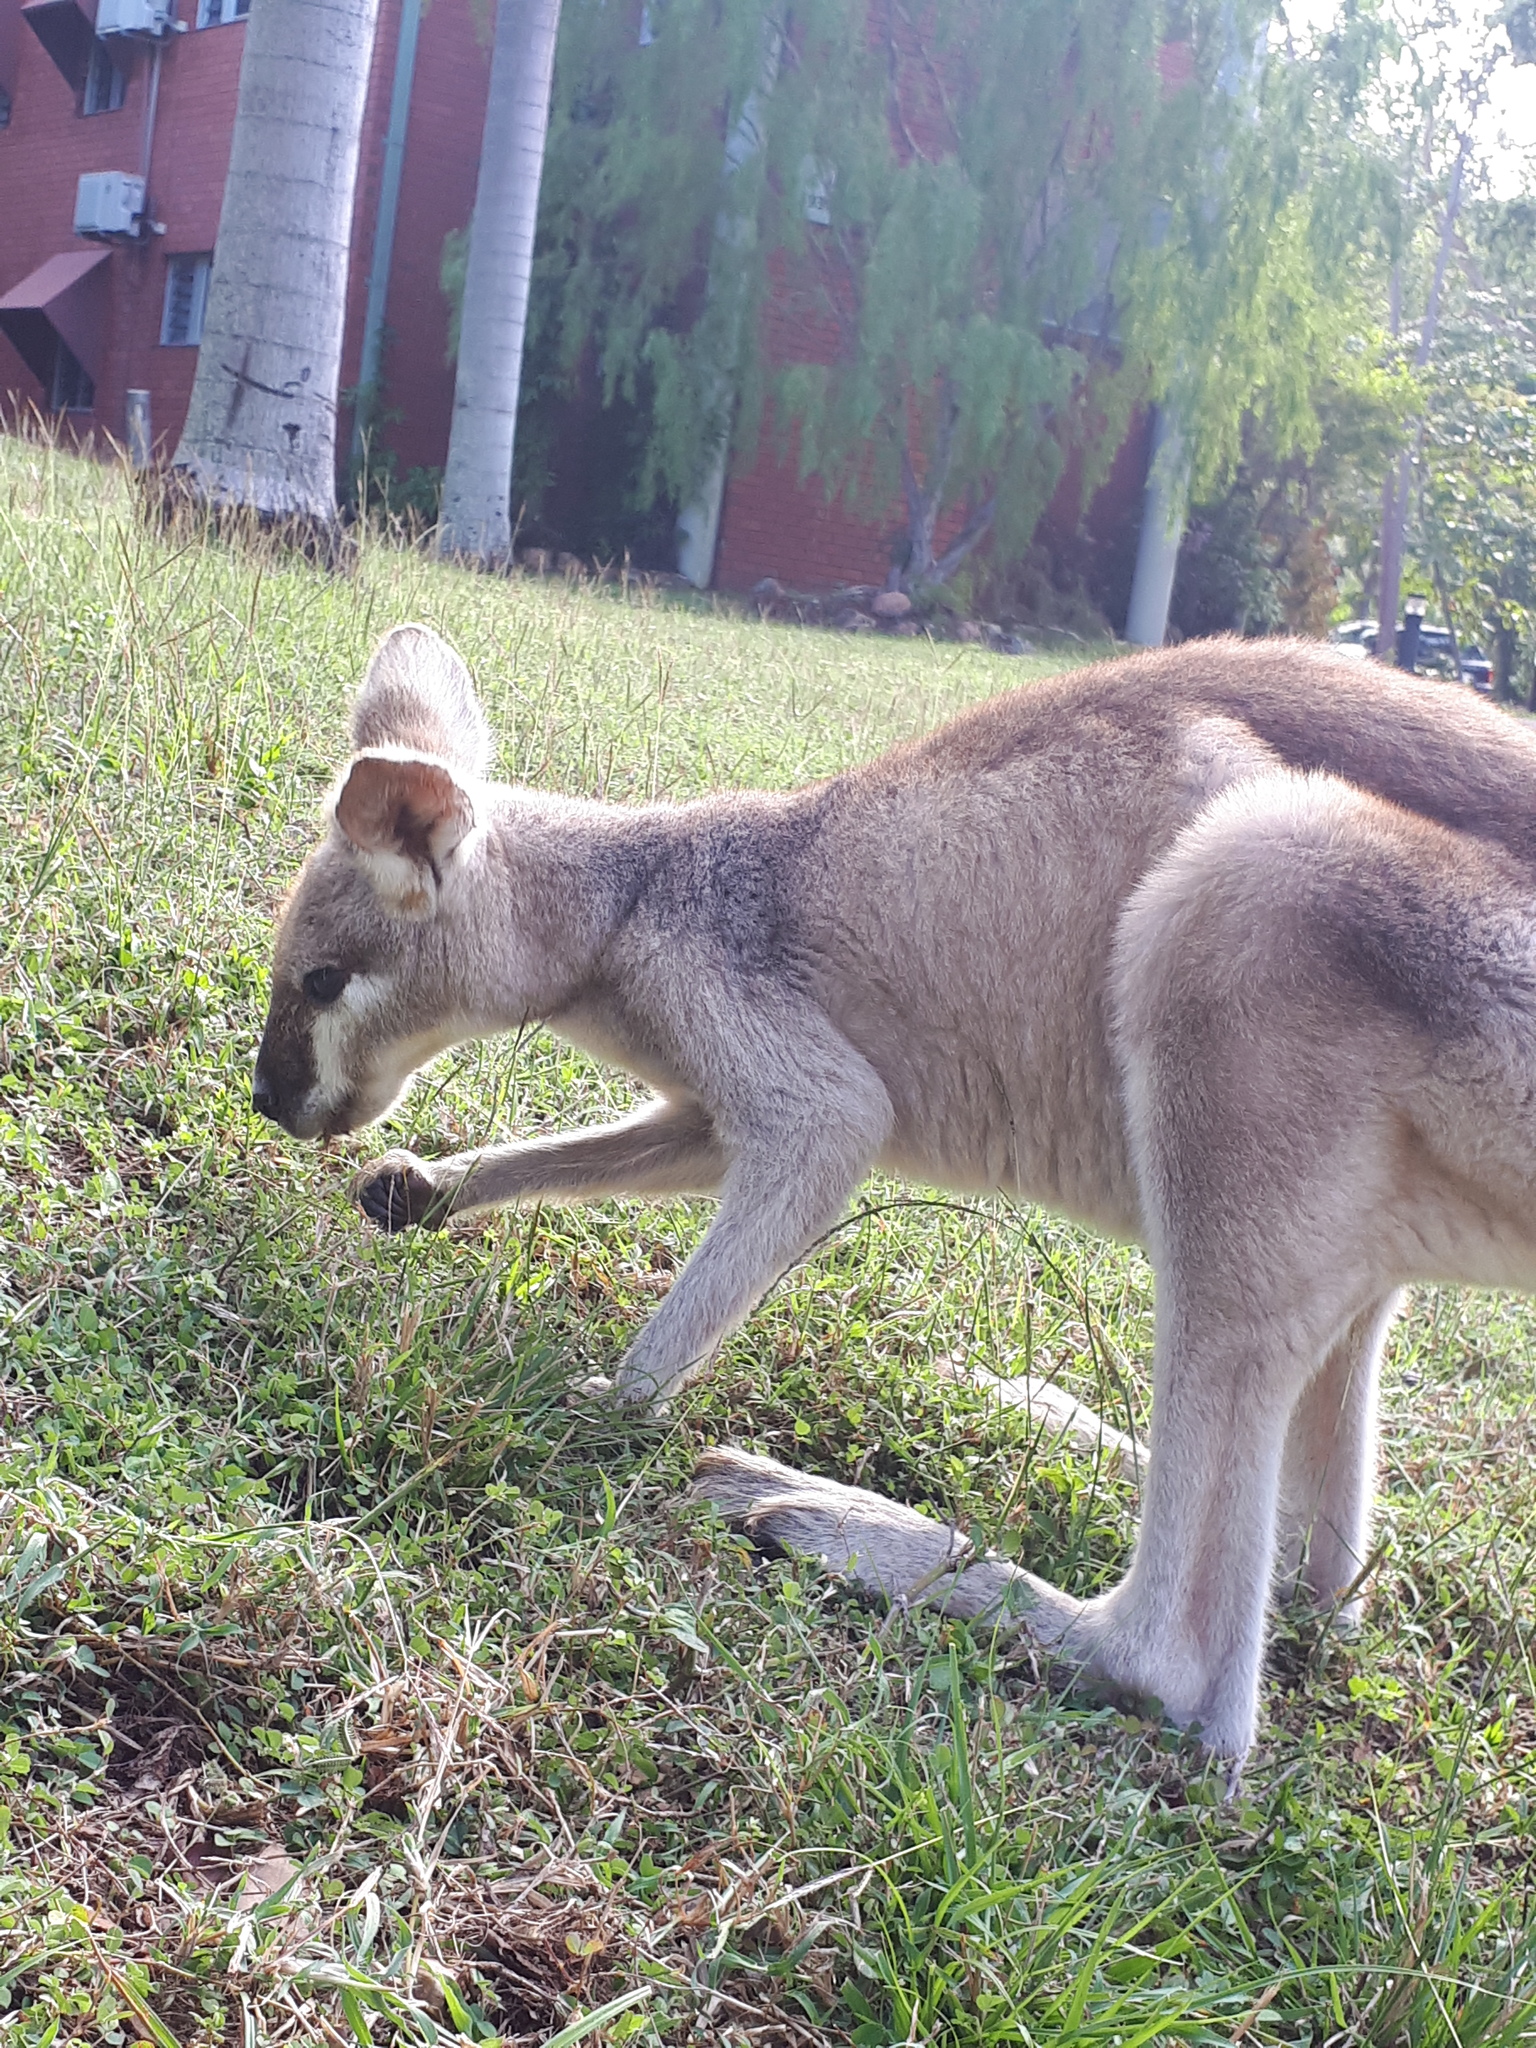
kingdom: Animalia
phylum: Chordata
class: Mammalia
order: Diprotodontia
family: Macropodidae
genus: Notamacropus
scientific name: Notamacropus parryi
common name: Whip-tailed wallaby
